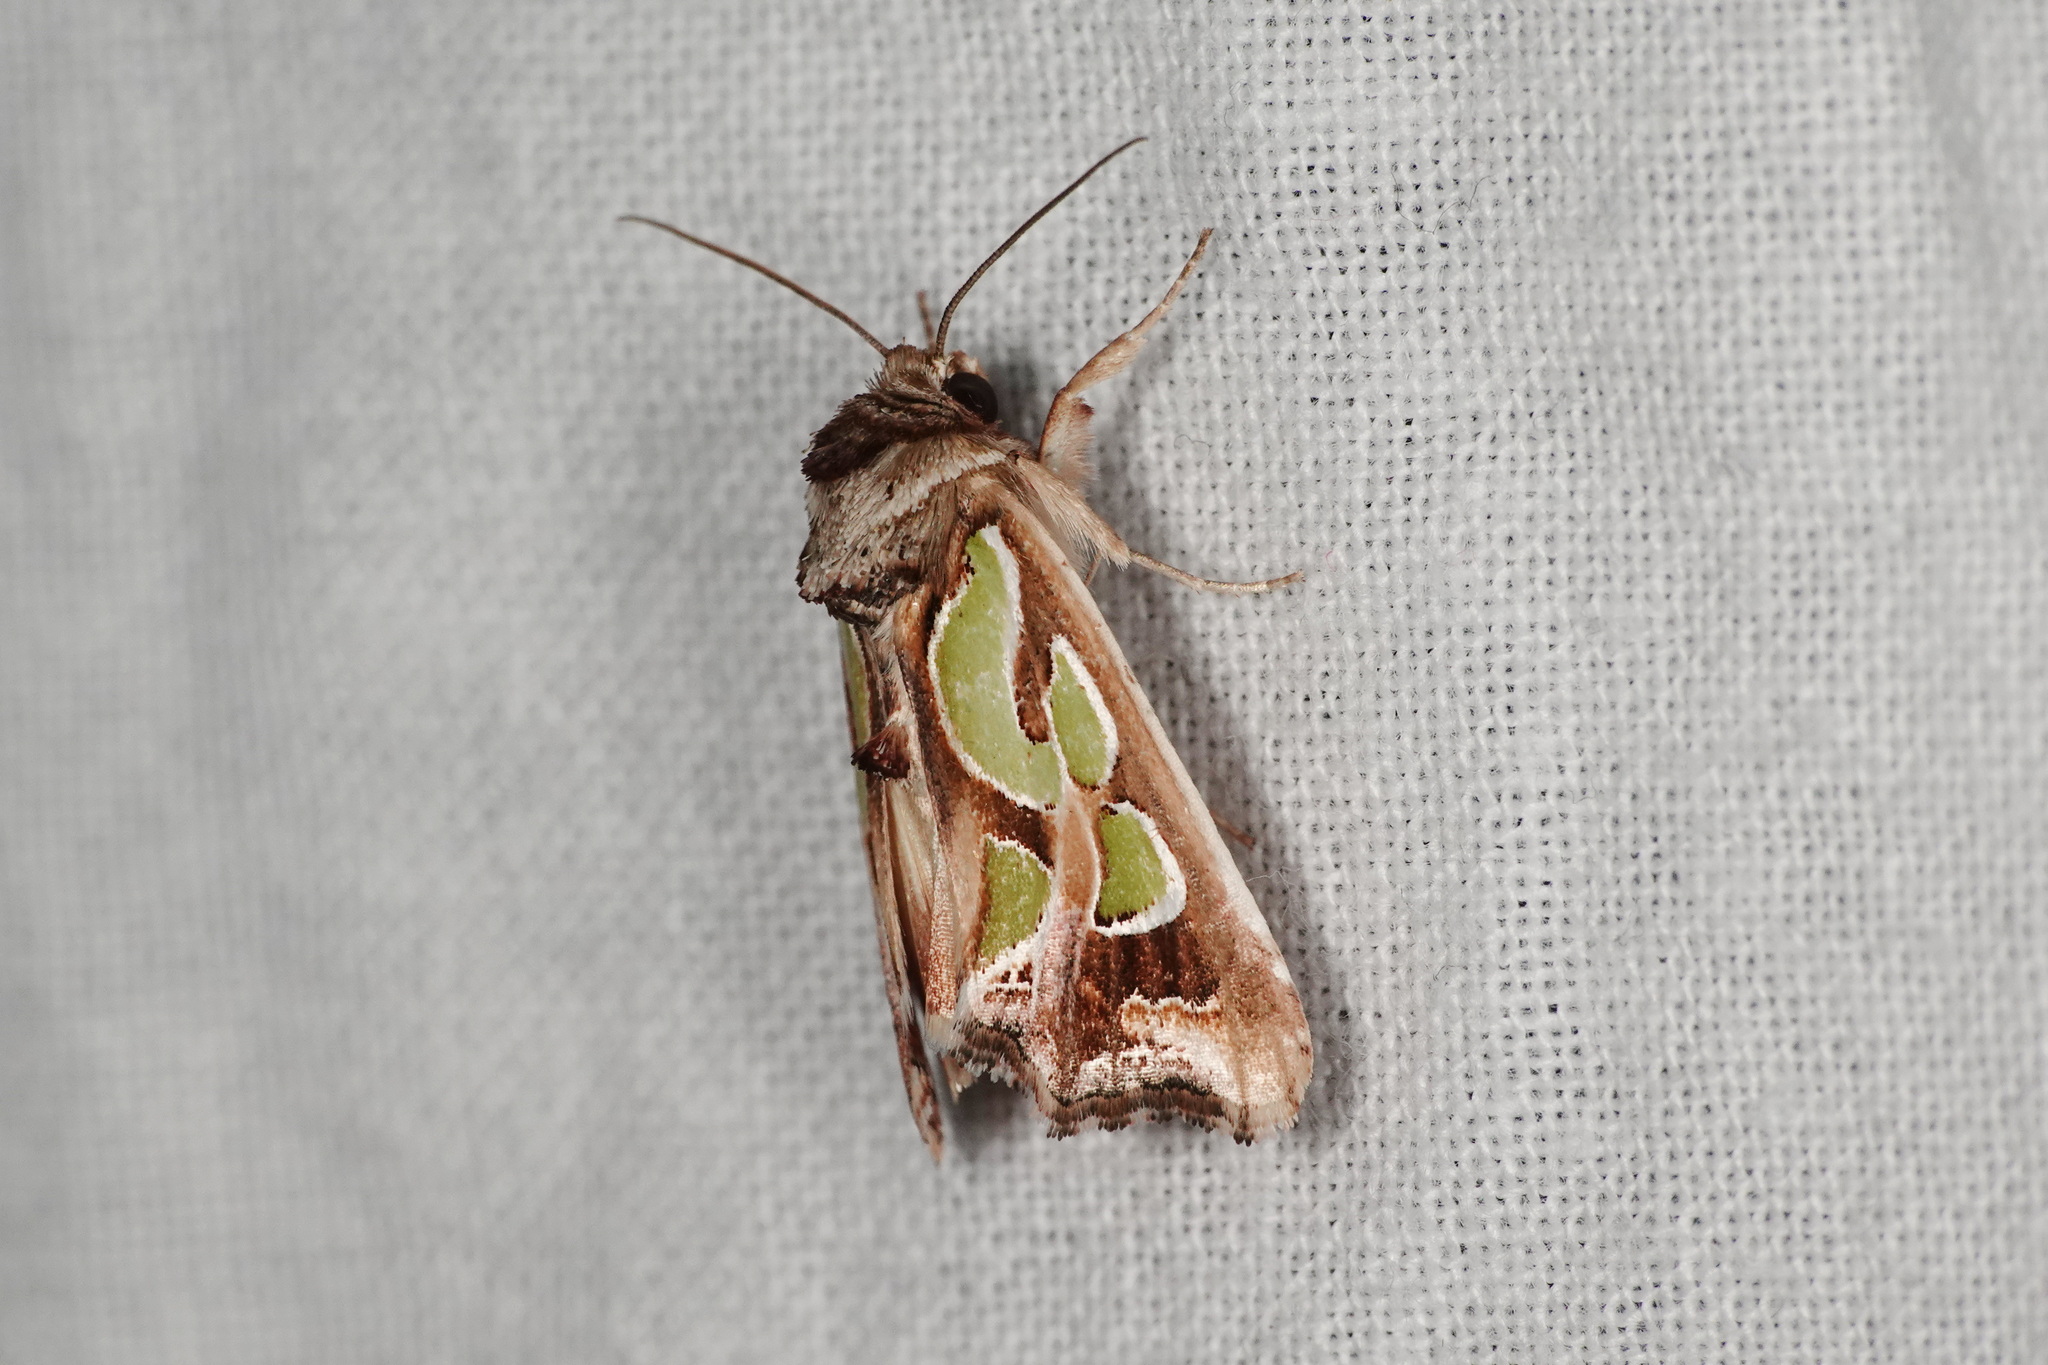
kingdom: Animalia
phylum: Arthropoda
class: Insecta
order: Lepidoptera
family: Noctuidae
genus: Cosmodes
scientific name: Cosmodes elegans
